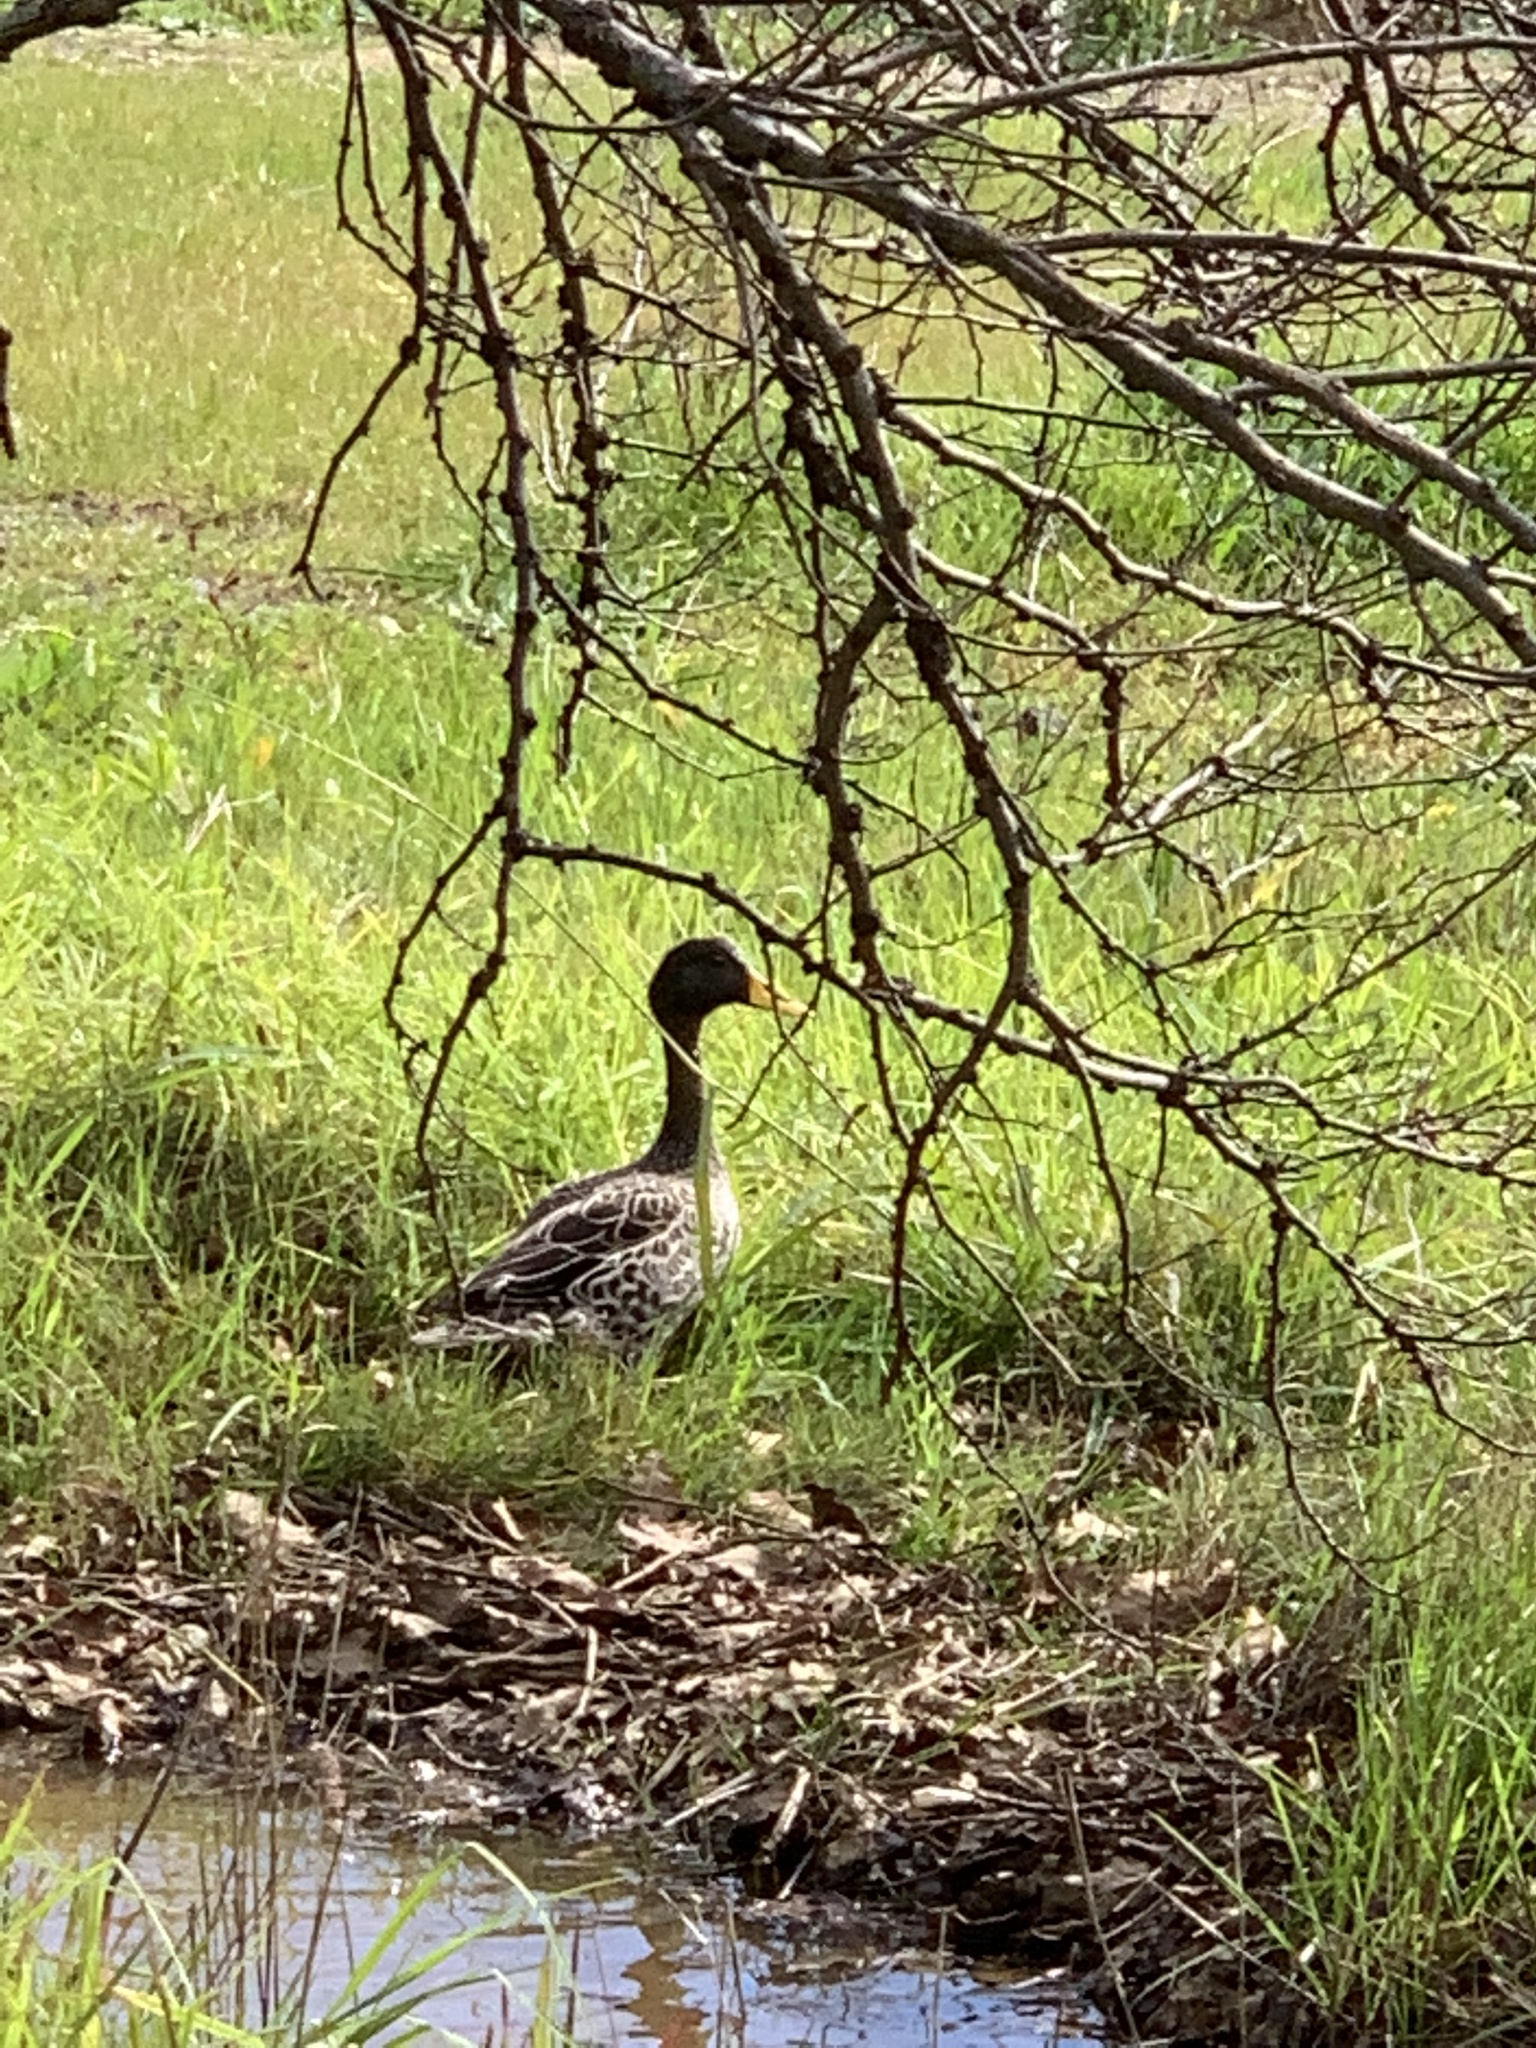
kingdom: Animalia
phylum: Chordata
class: Aves
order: Anseriformes
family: Anatidae
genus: Anas
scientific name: Anas undulata
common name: Yellow-billed duck
